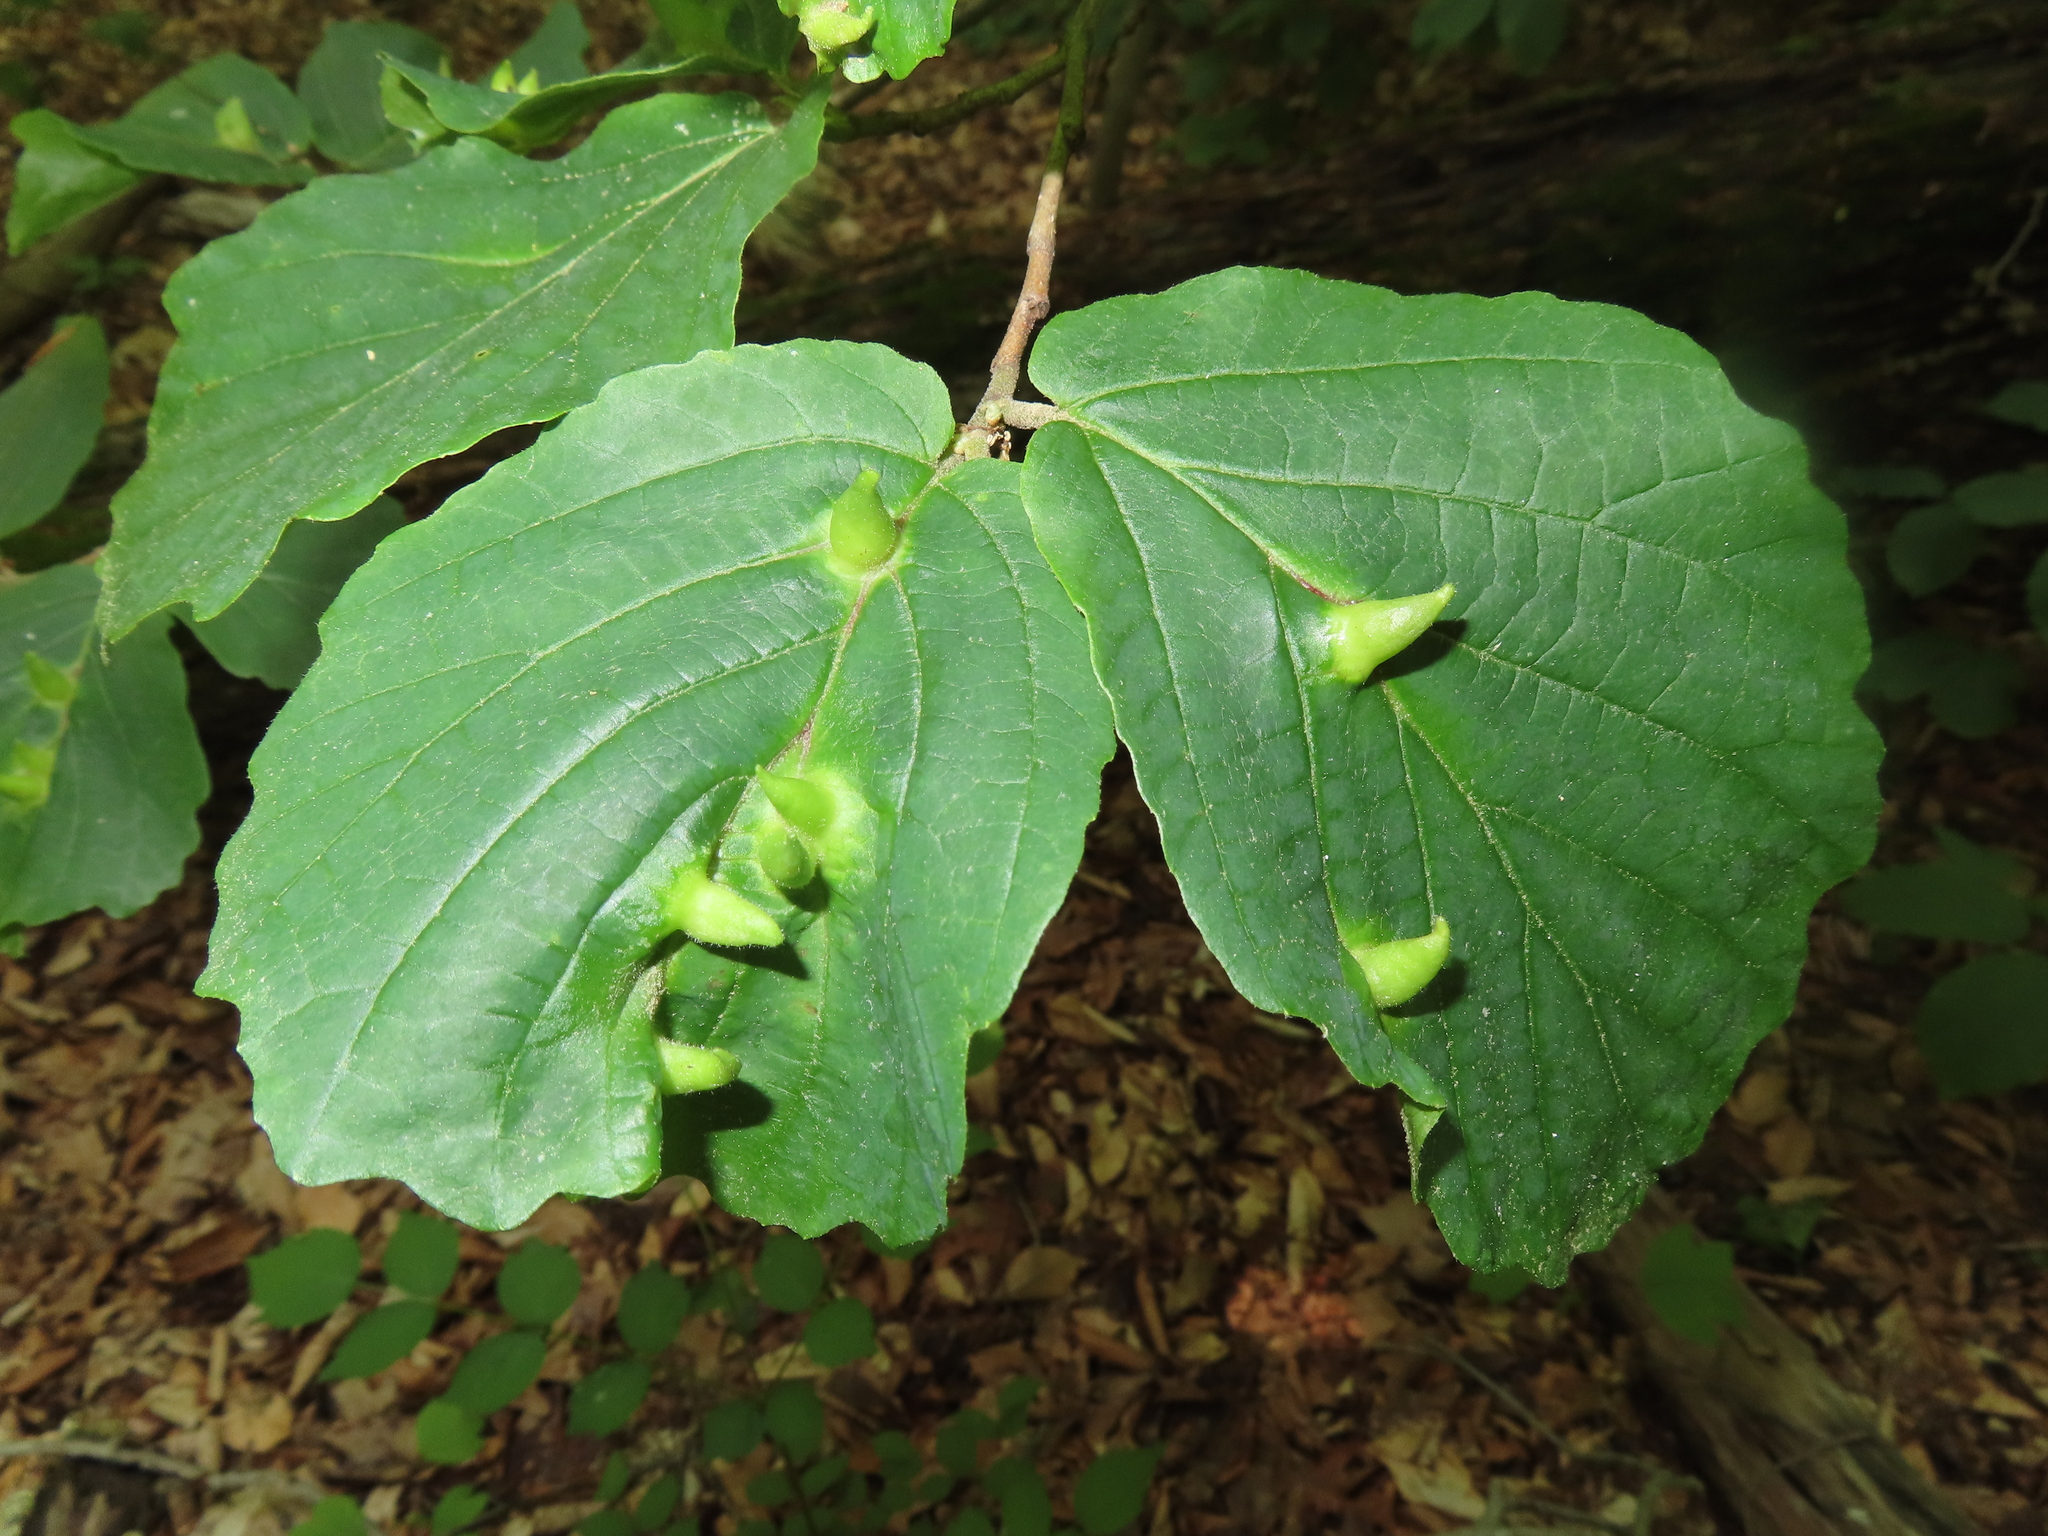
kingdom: Animalia
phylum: Arthropoda
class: Insecta
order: Hemiptera
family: Aphididae
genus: Hormaphis
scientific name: Hormaphis hamamelidis
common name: Witch-hazel cone gall aphid
